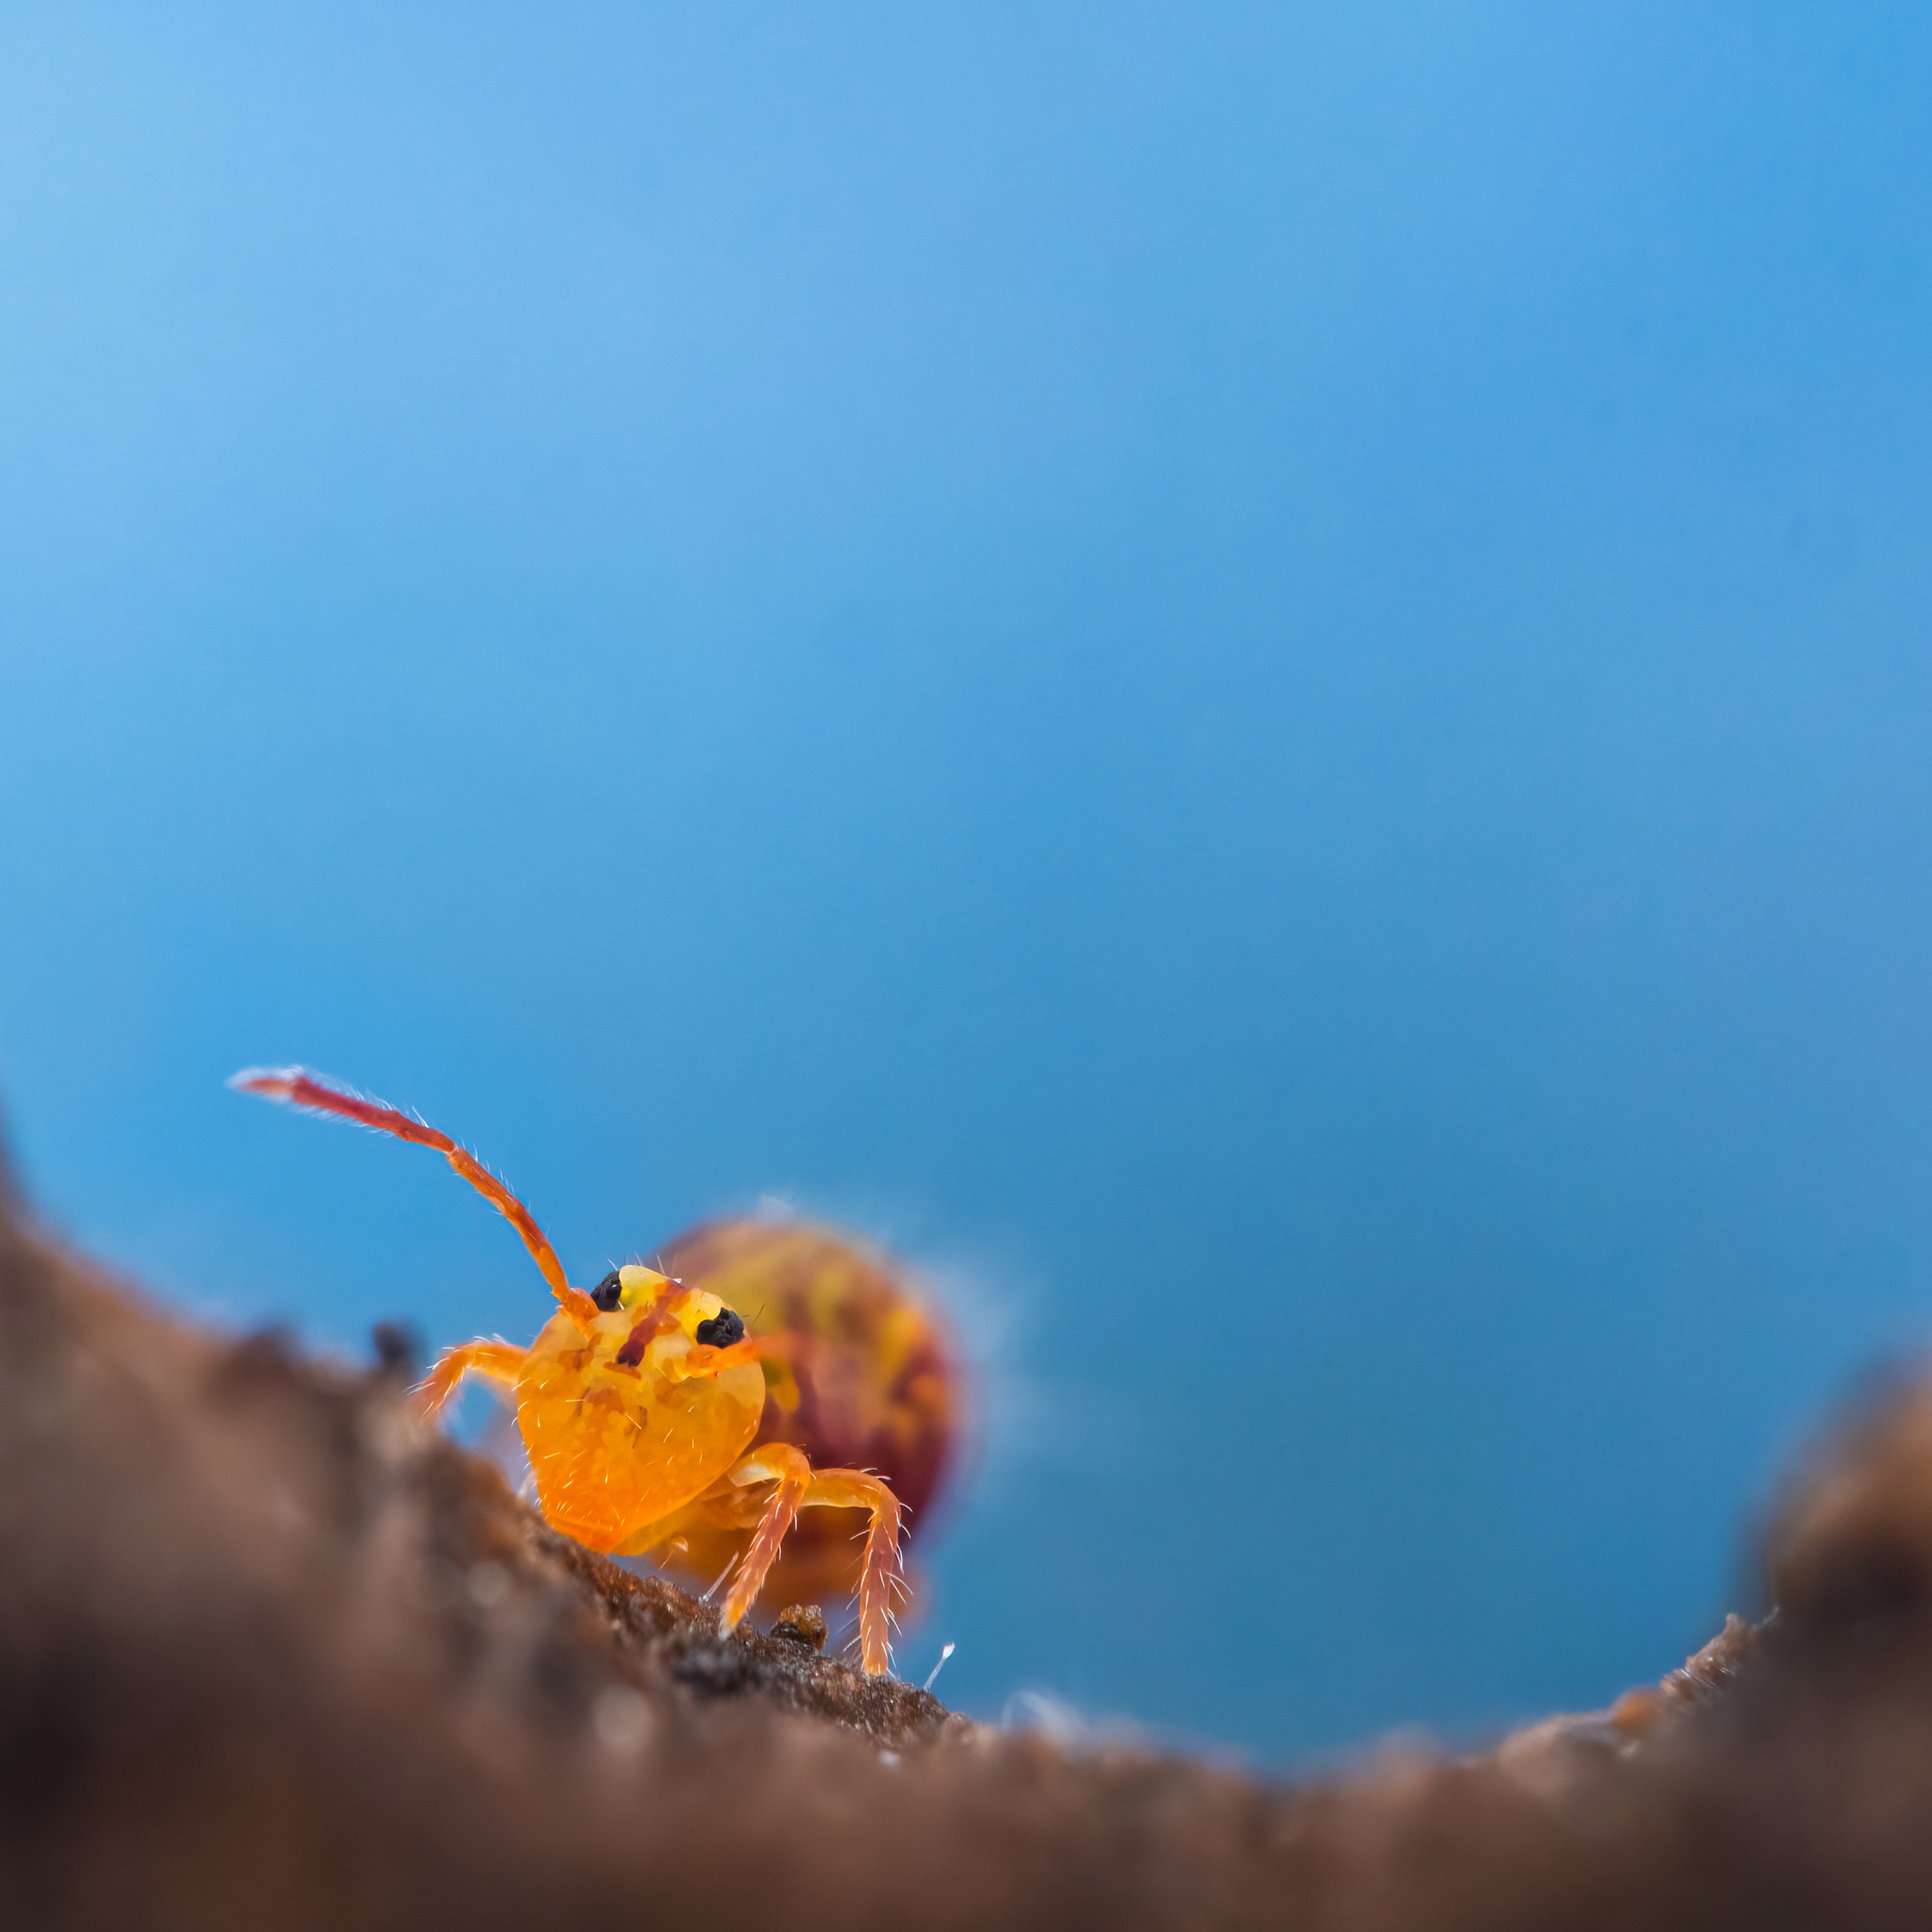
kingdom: Animalia
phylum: Arthropoda
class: Collembola
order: Symphypleona
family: Dicyrtomidae
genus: Dicyrtomina
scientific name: Dicyrtomina ornata
